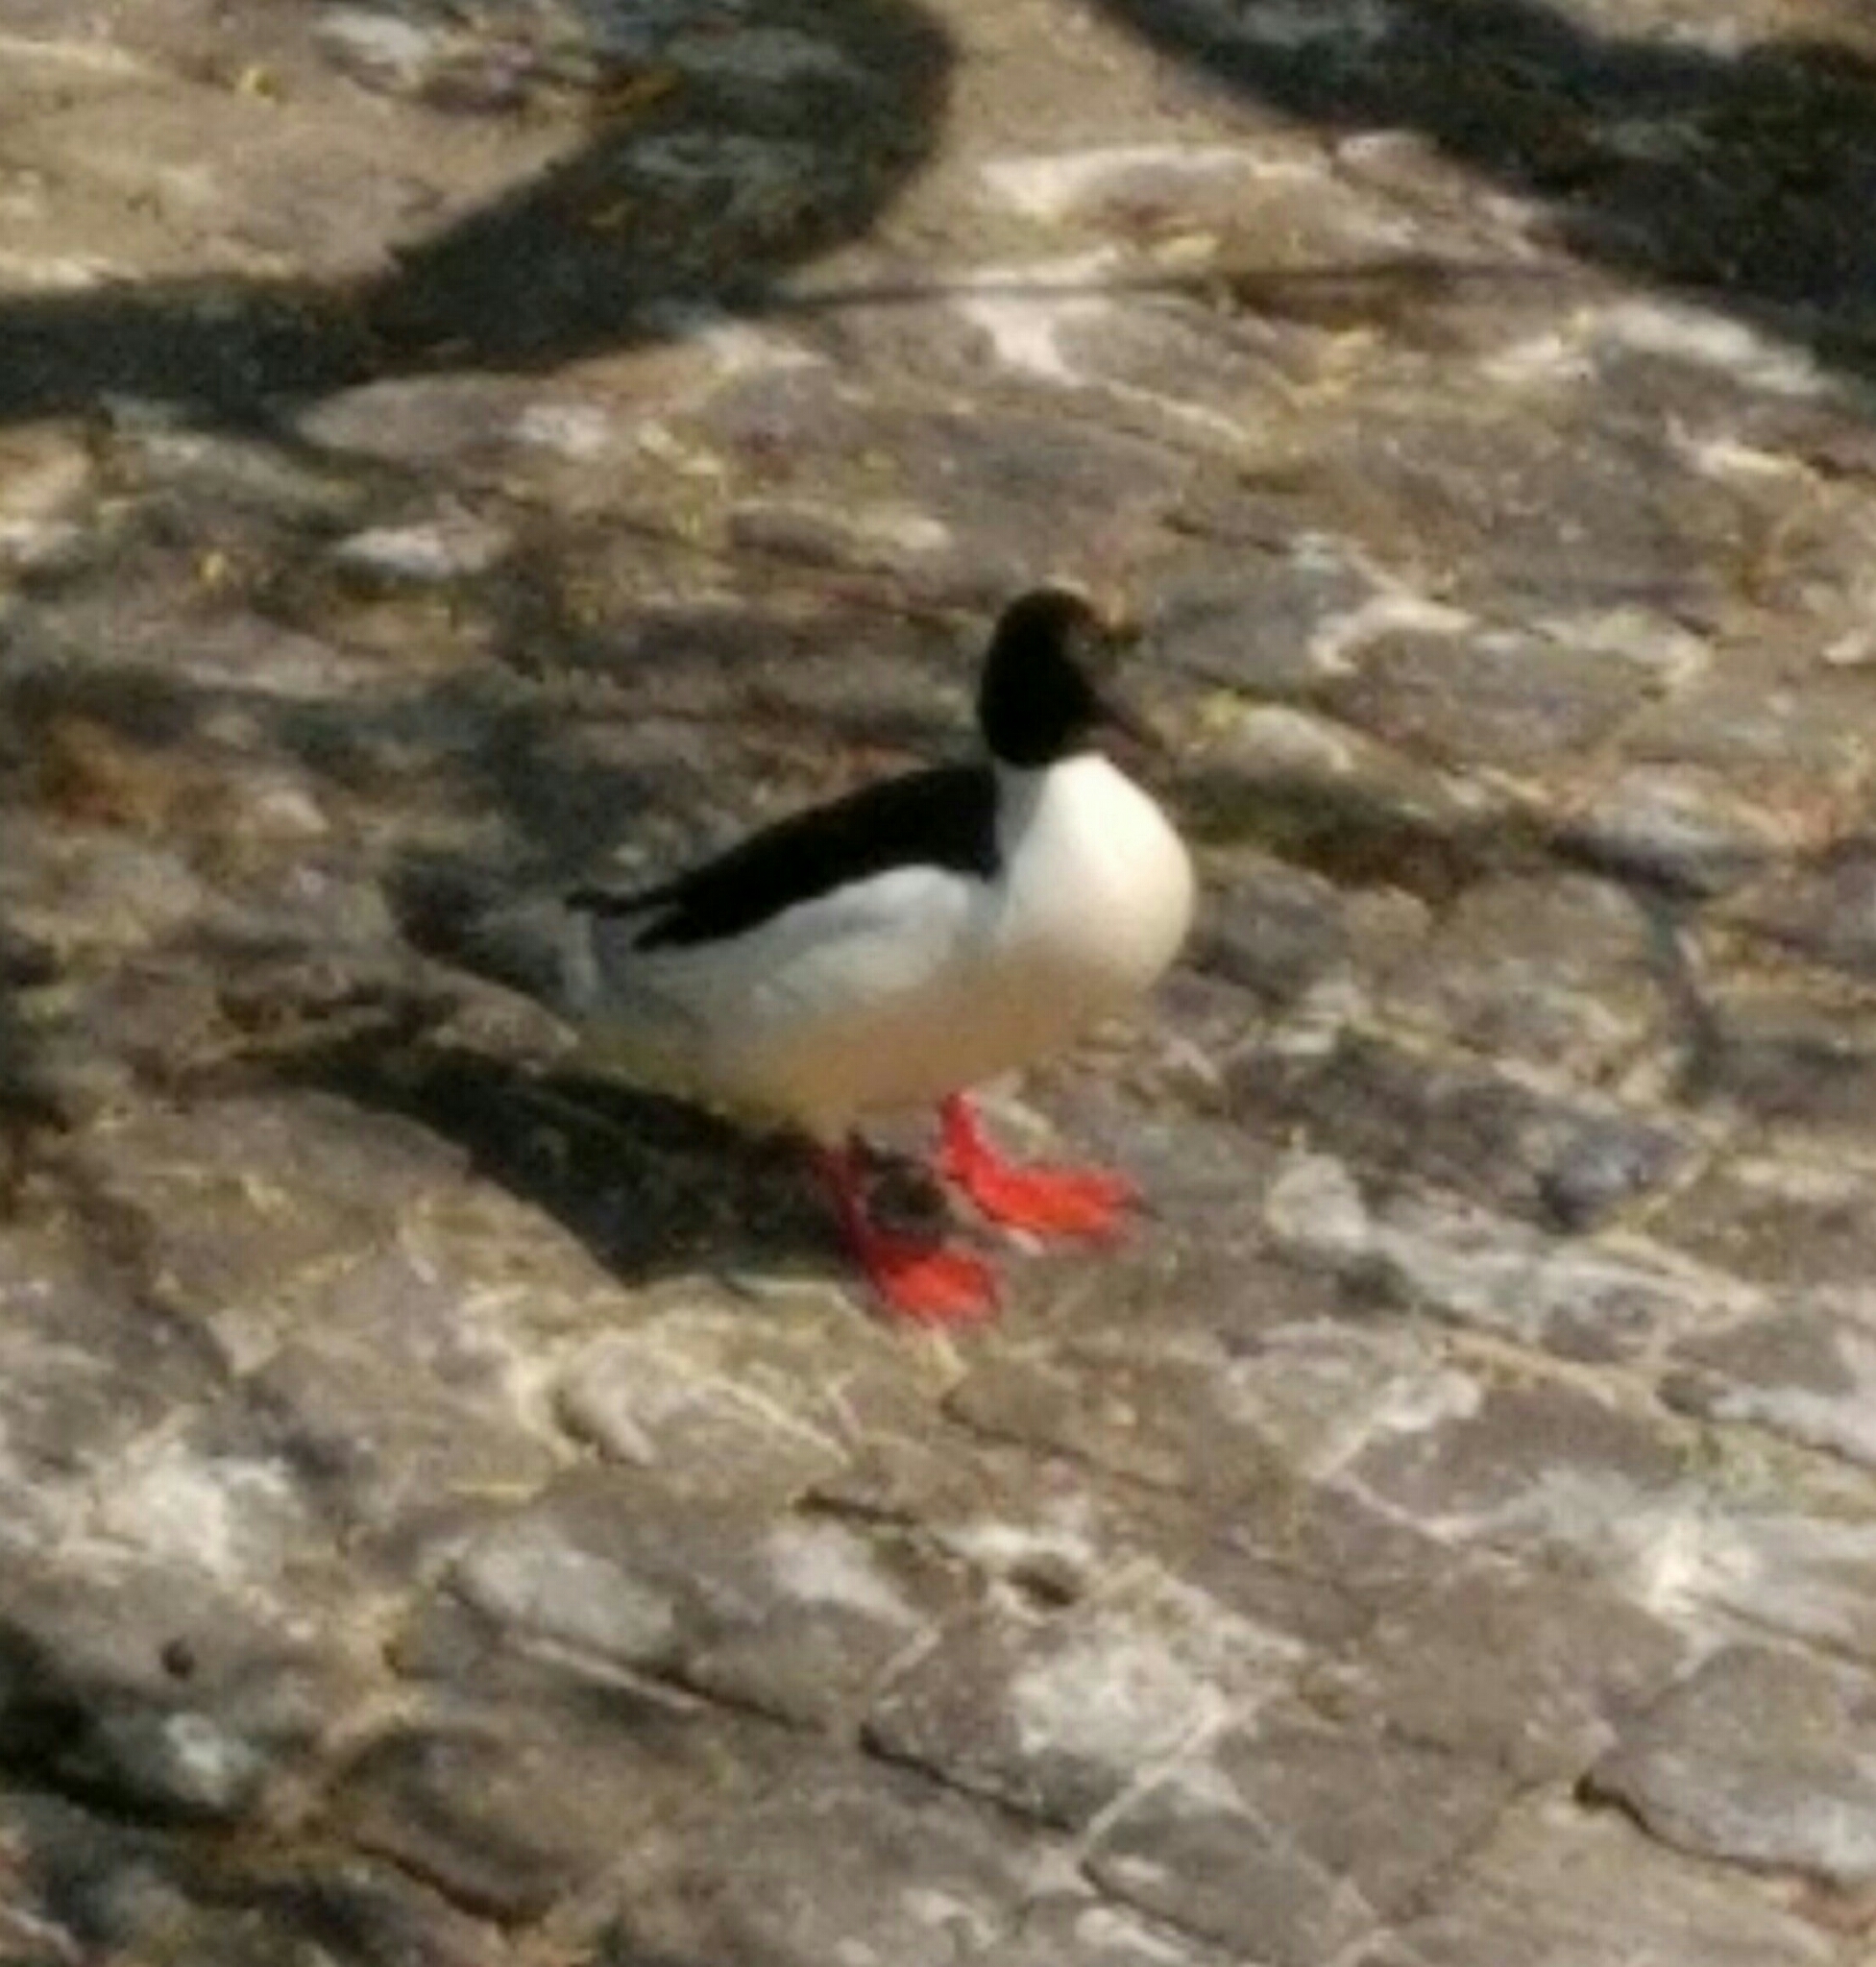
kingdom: Animalia
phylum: Chordata
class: Aves
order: Anseriformes
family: Anatidae
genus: Mergus
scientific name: Mergus merganser
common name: Common merganser
